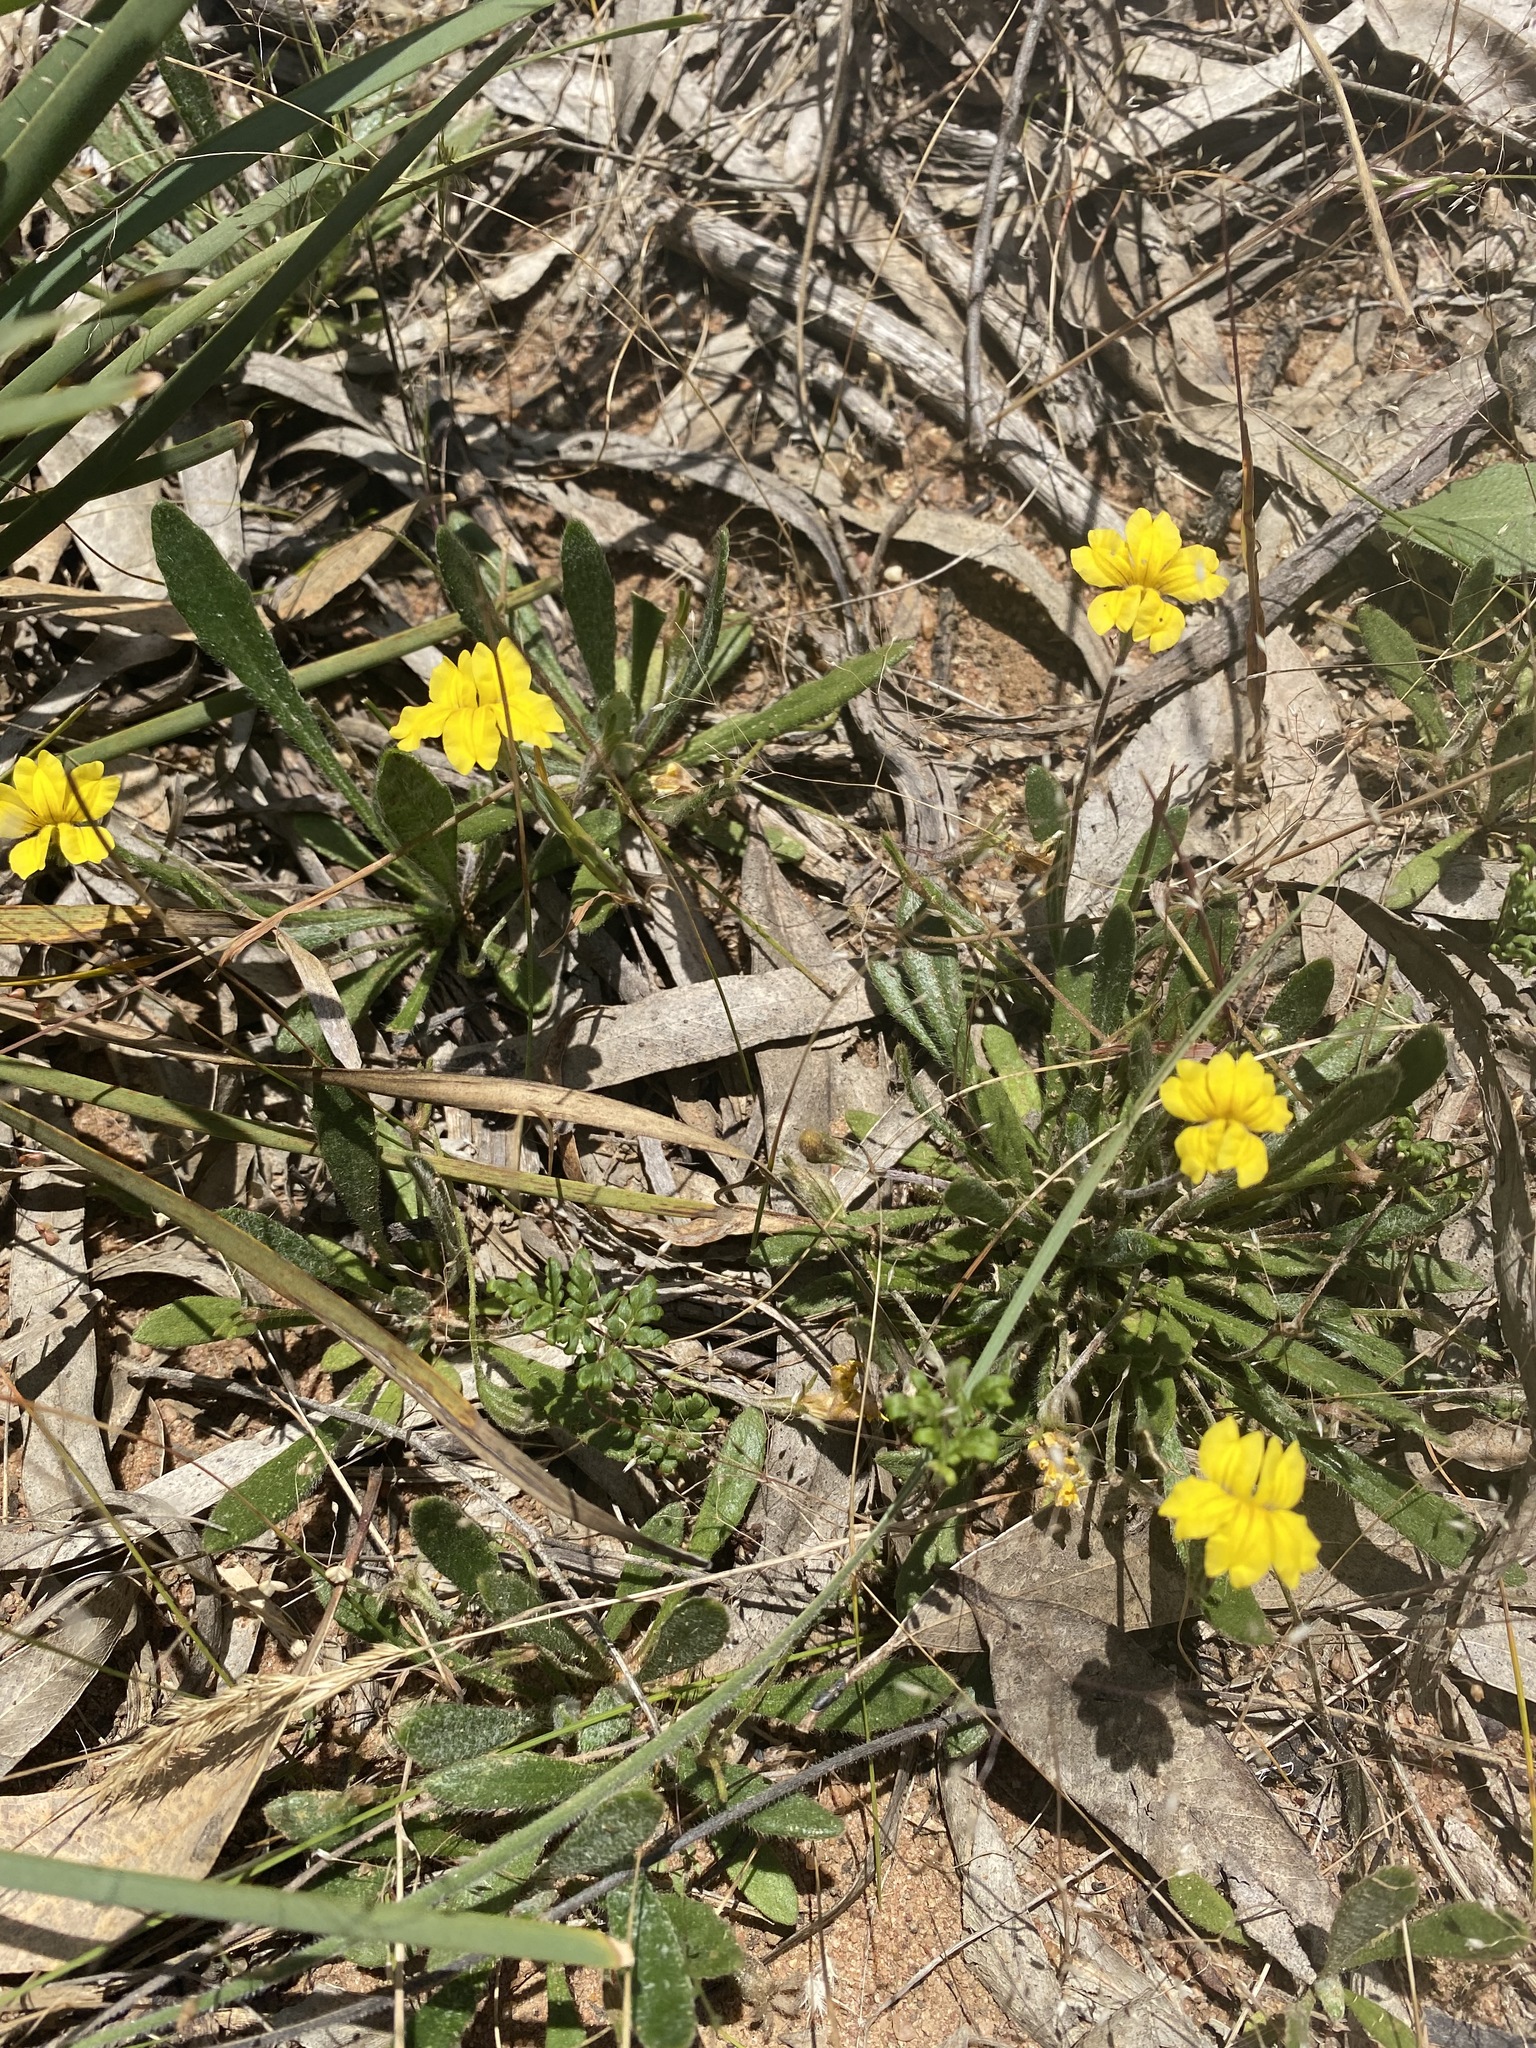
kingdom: Plantae
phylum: Tracheophyta
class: Magnoliopsida
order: Asterales
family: Goodeniaceae
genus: Goodenia
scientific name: Goodenia geniculata
